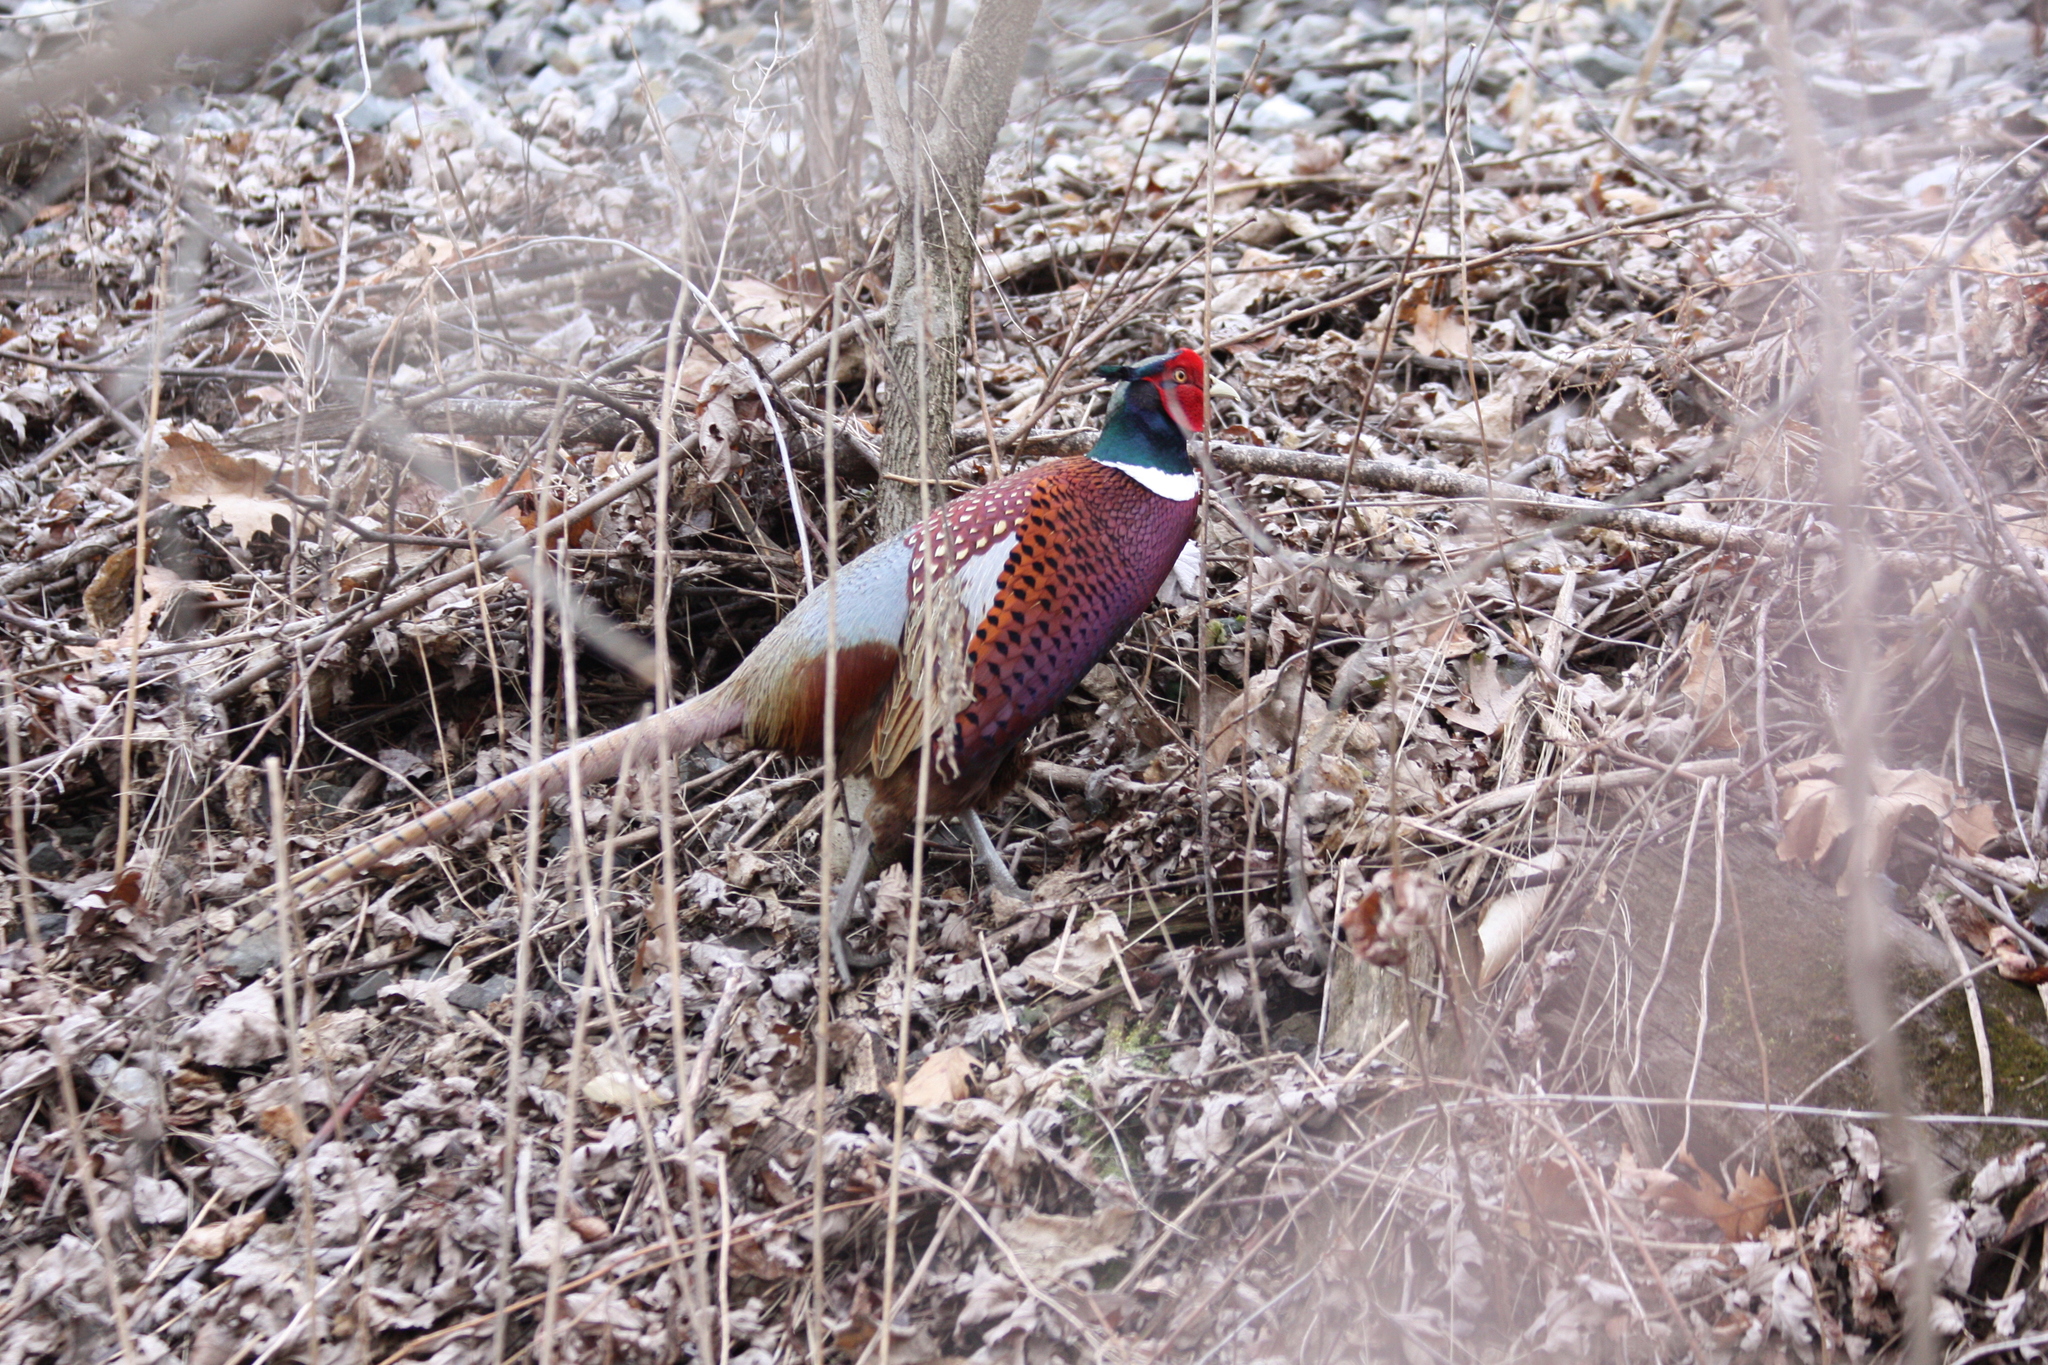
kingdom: Animalia
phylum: Chordata
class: Aves
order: Galliformes
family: Phasianidae
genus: Phasianus
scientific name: Phasianus colchicus
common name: Common pheasant
